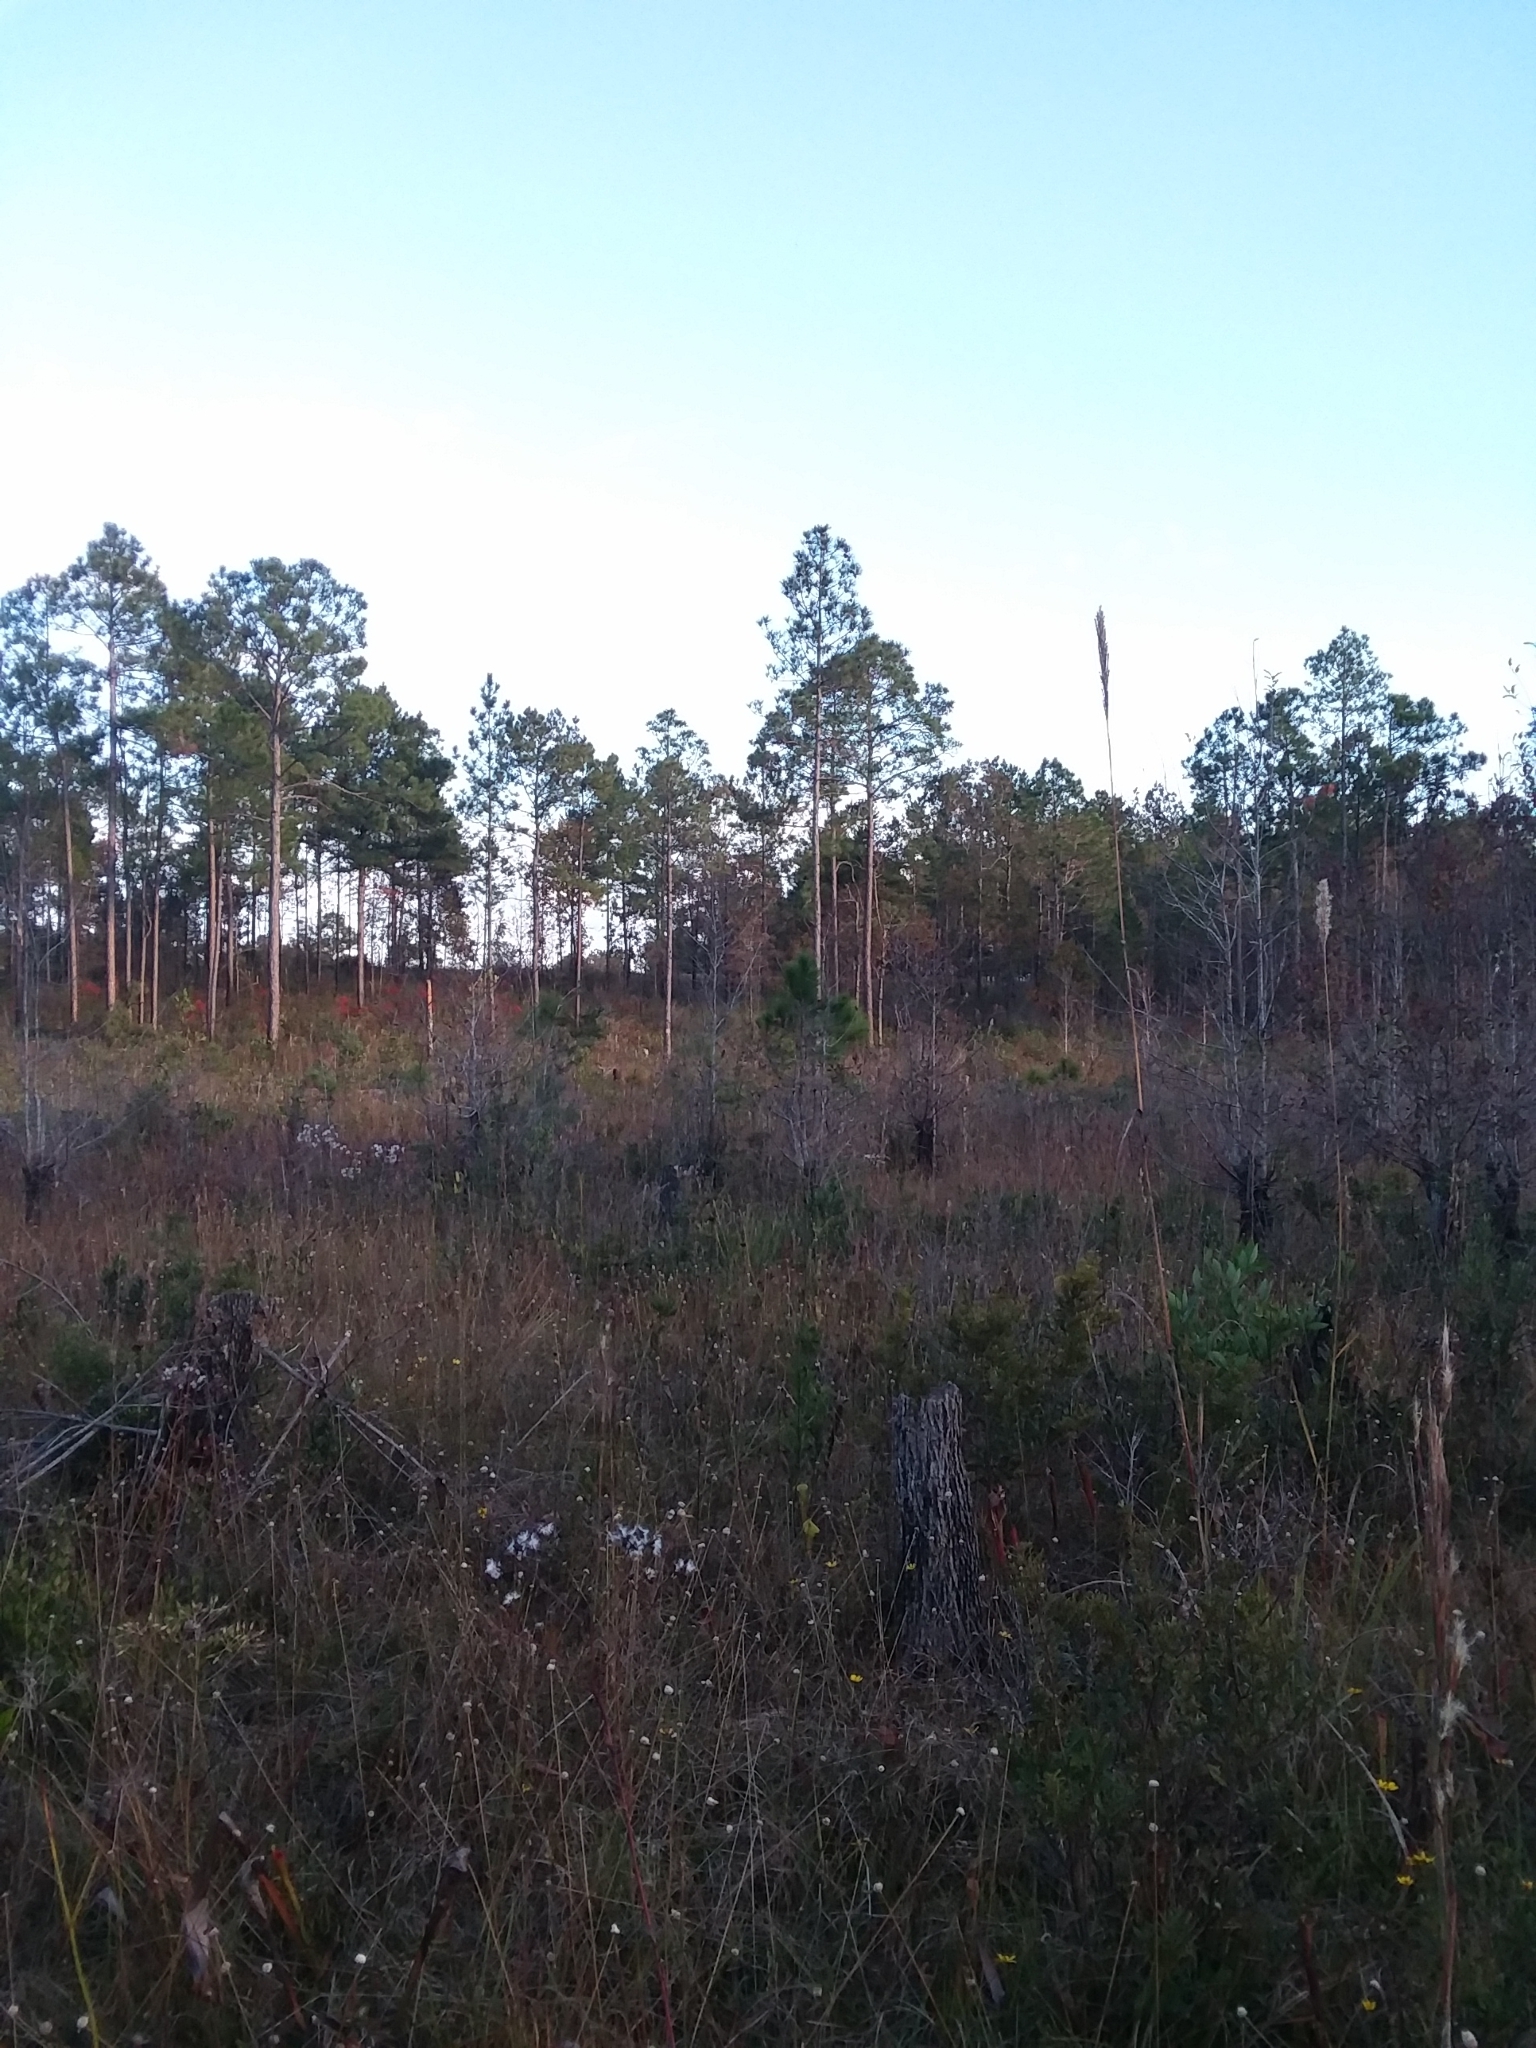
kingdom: Plantae
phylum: Tracheophyta
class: Liliopsida
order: Poales
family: Poaceae
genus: Andropogon
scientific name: Andropogon mohrii
